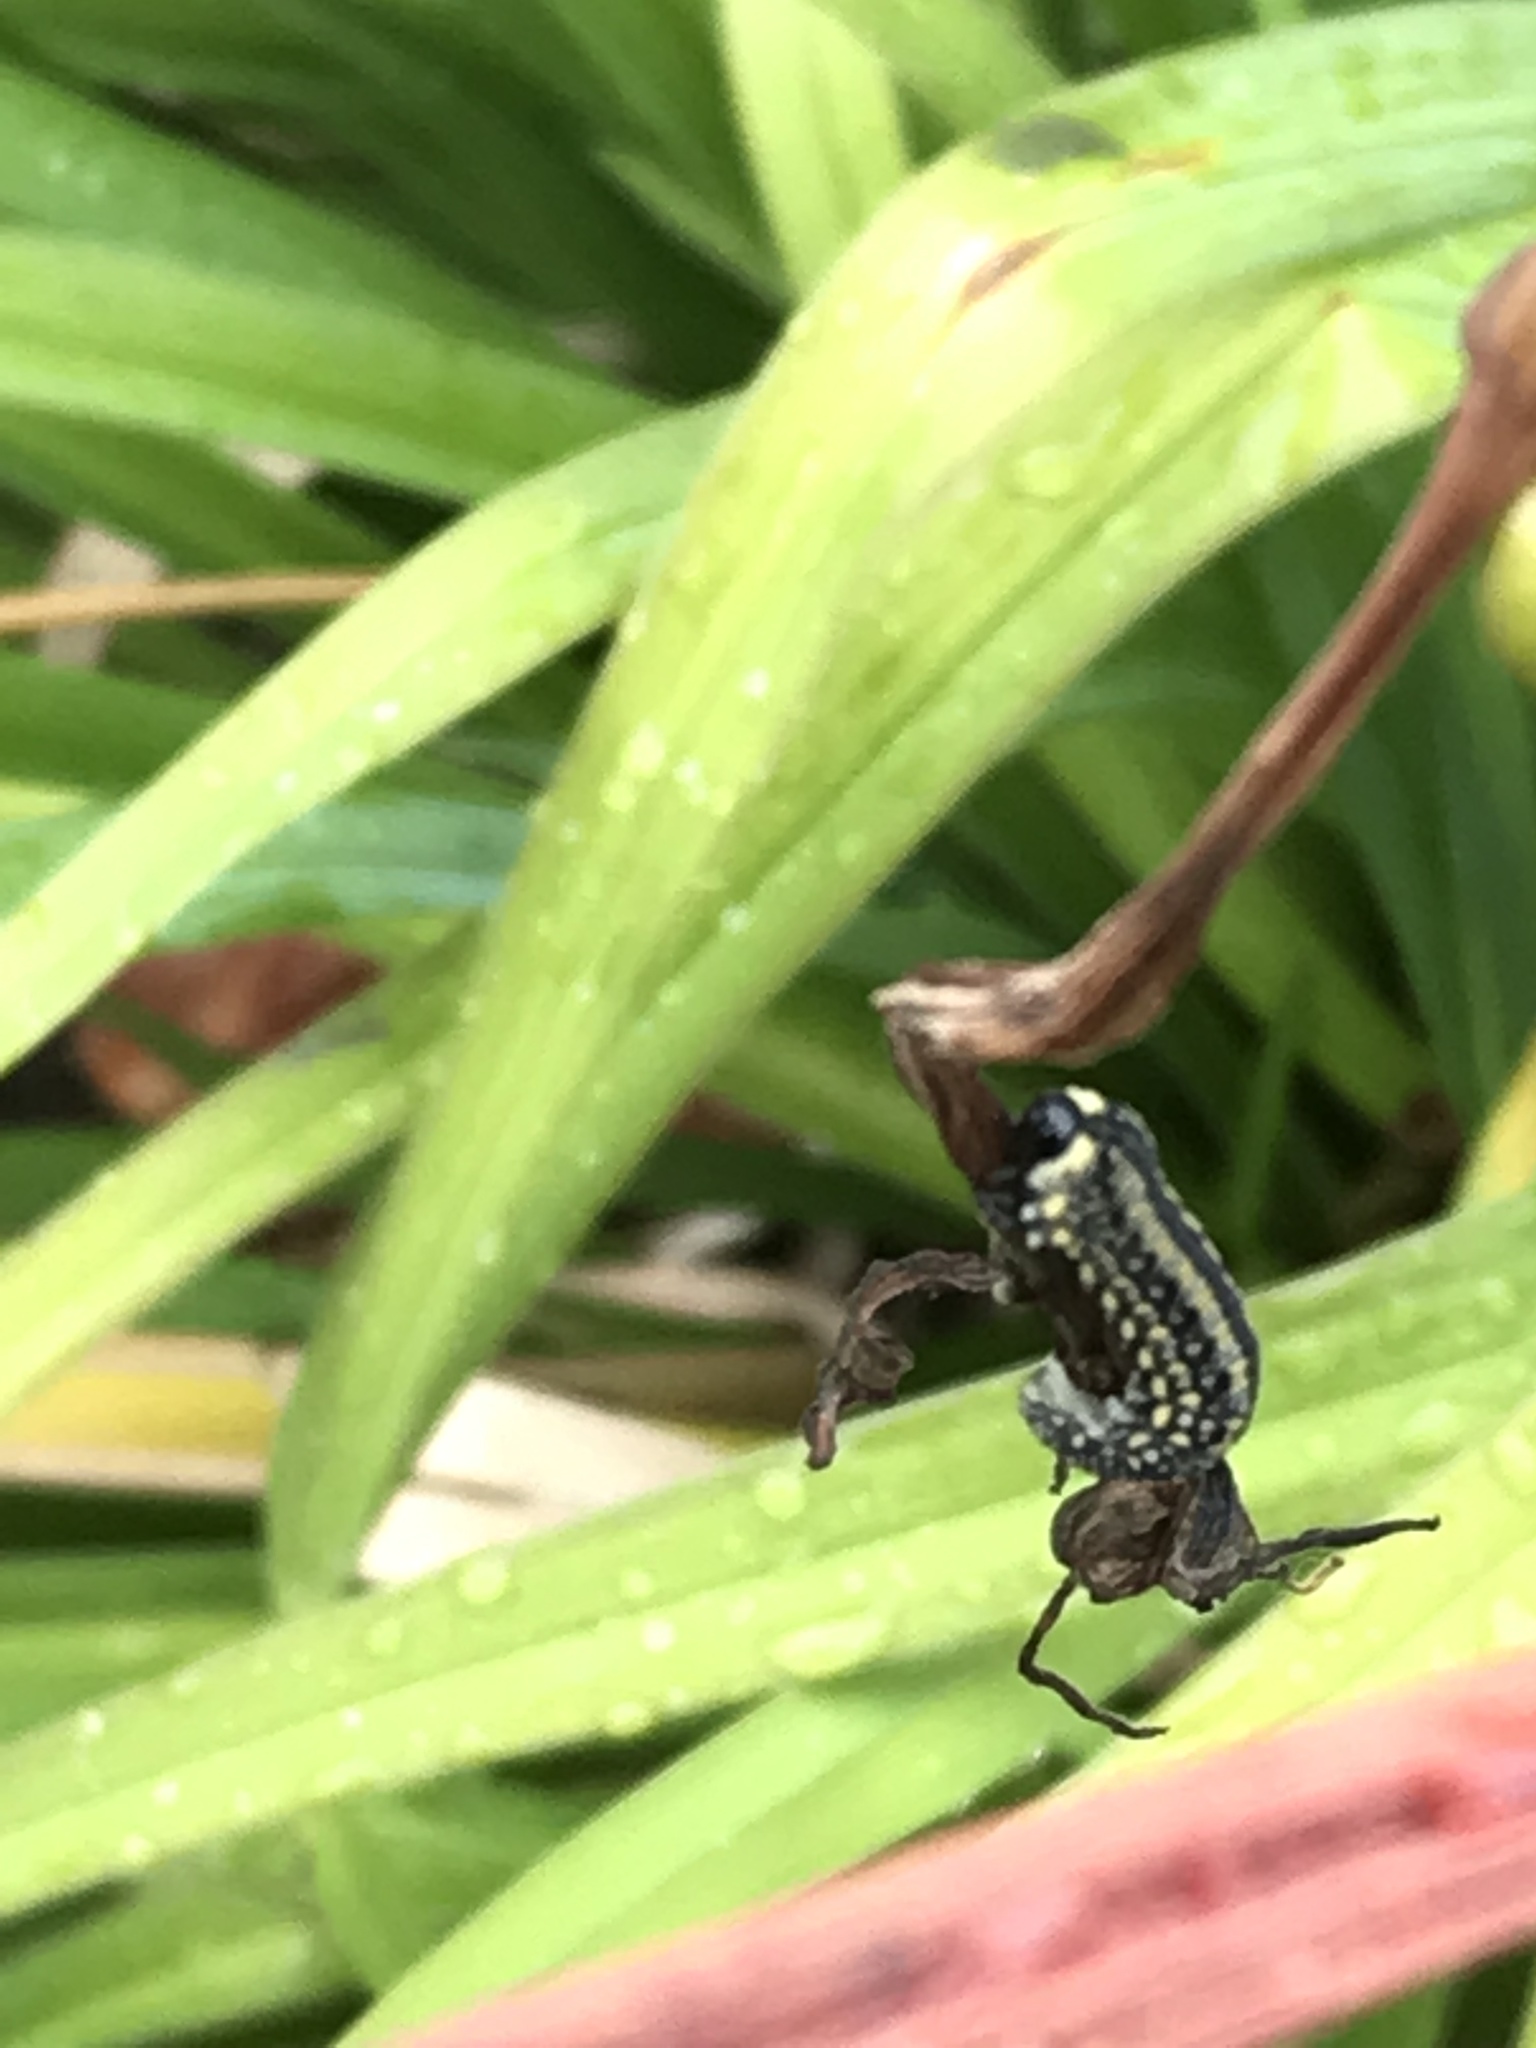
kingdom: Animalia
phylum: Arthropoda
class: Insecta
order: Hymenoptera
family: Diprionidae
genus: Diprion
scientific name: Diprion similis
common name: Pine sawfly
